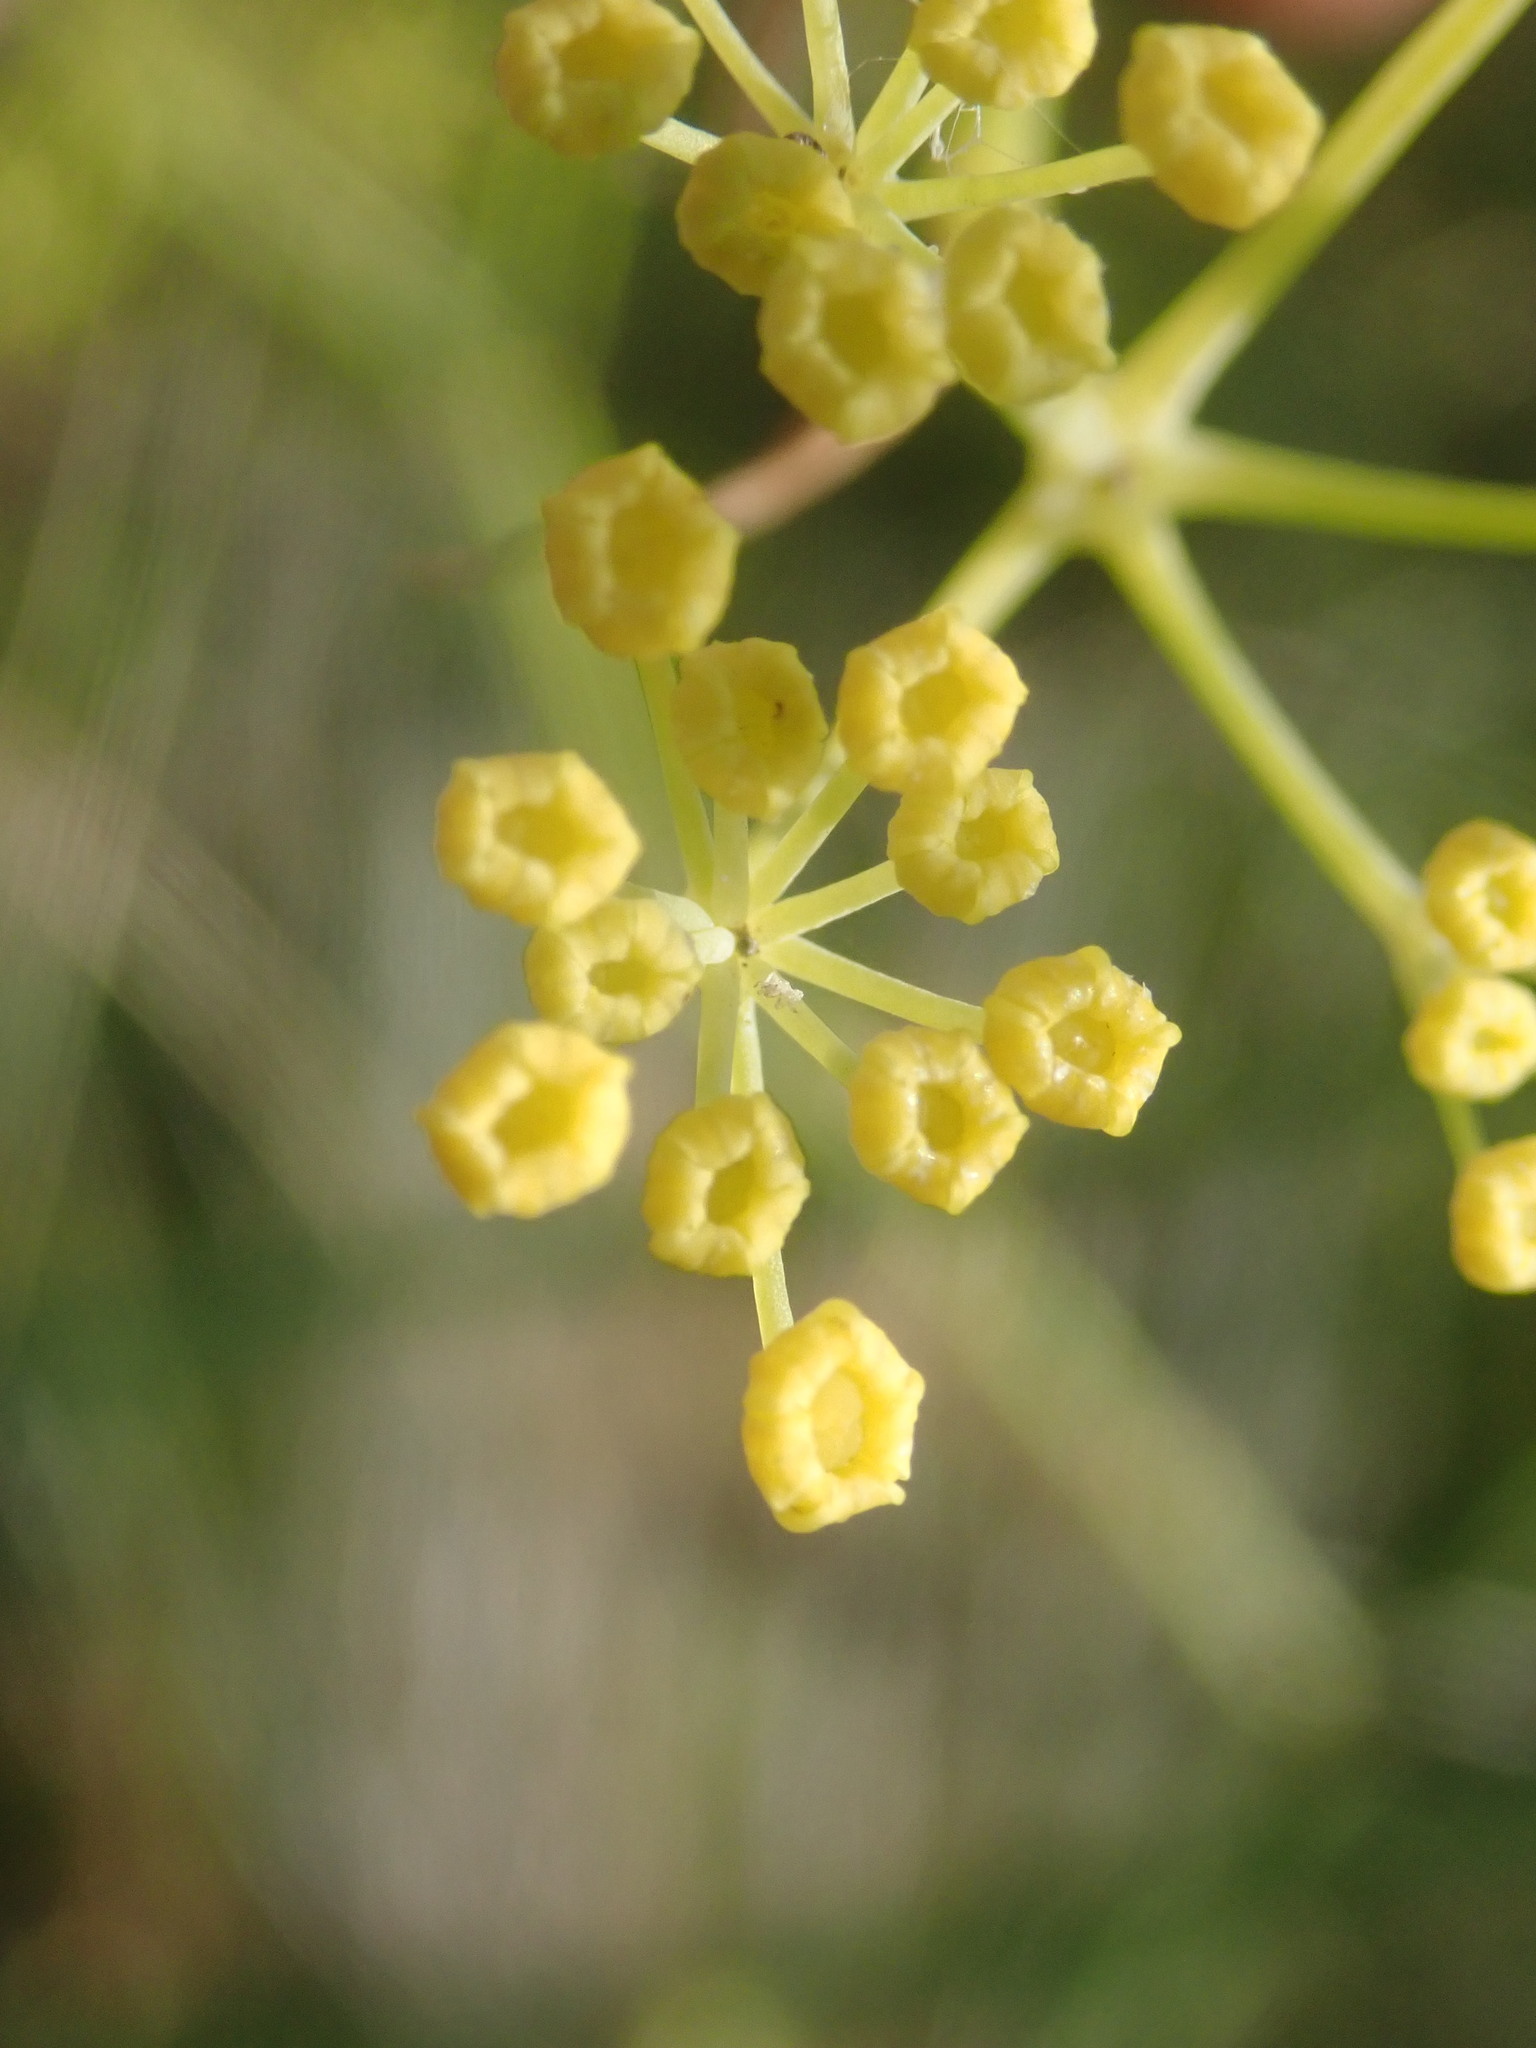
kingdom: Plantae
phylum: Tracheophyta
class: Magnoliopsida
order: Apiales
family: Apiaceae
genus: Foeniculum
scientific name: Foeniculum vulgare
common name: Fennel
